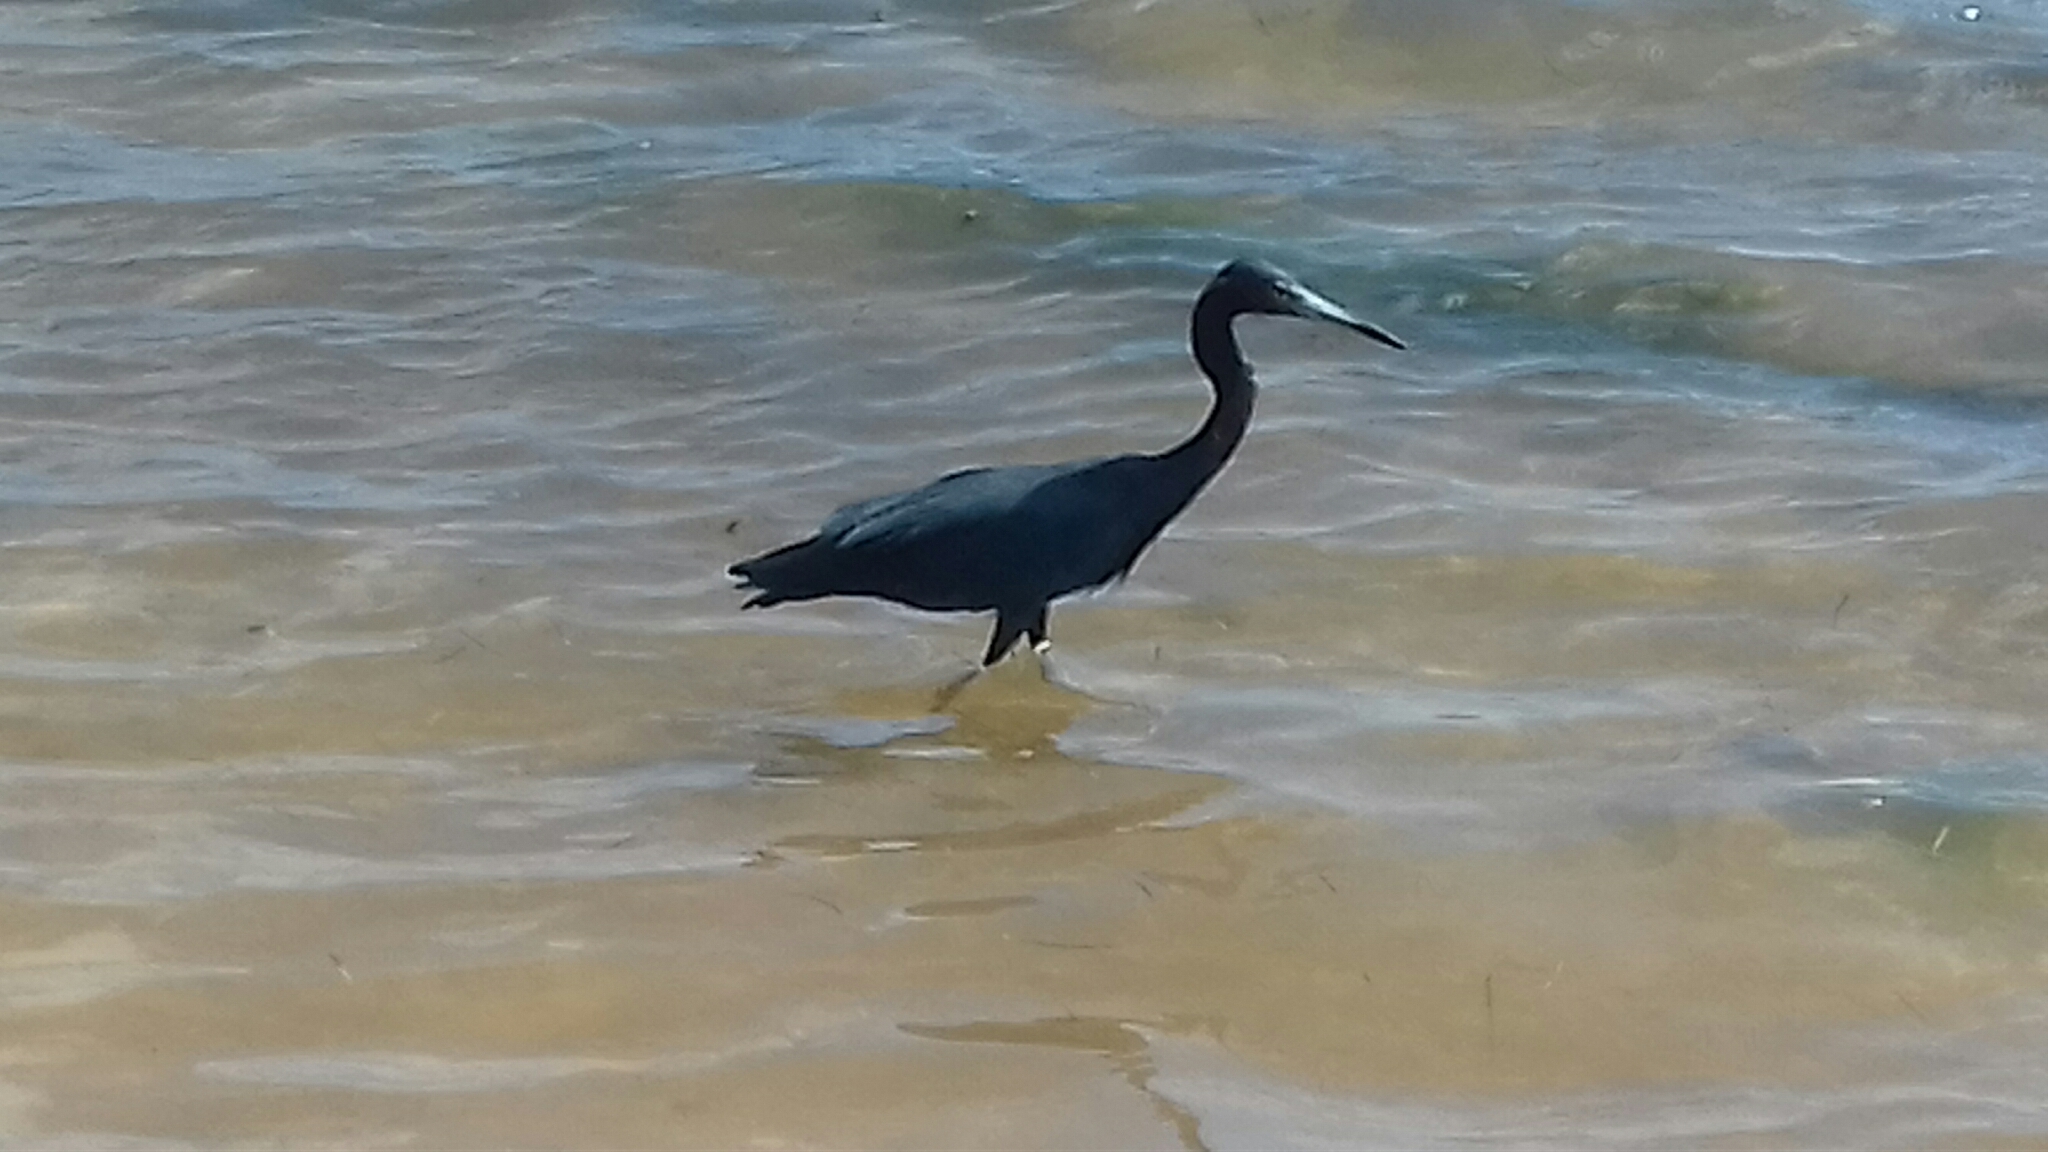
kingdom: Animalia
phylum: Chordata
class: Aves
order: Pelecaniformes
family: Ardeidae
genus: Egretta
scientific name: Egretta caerulea
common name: Little blue heron
